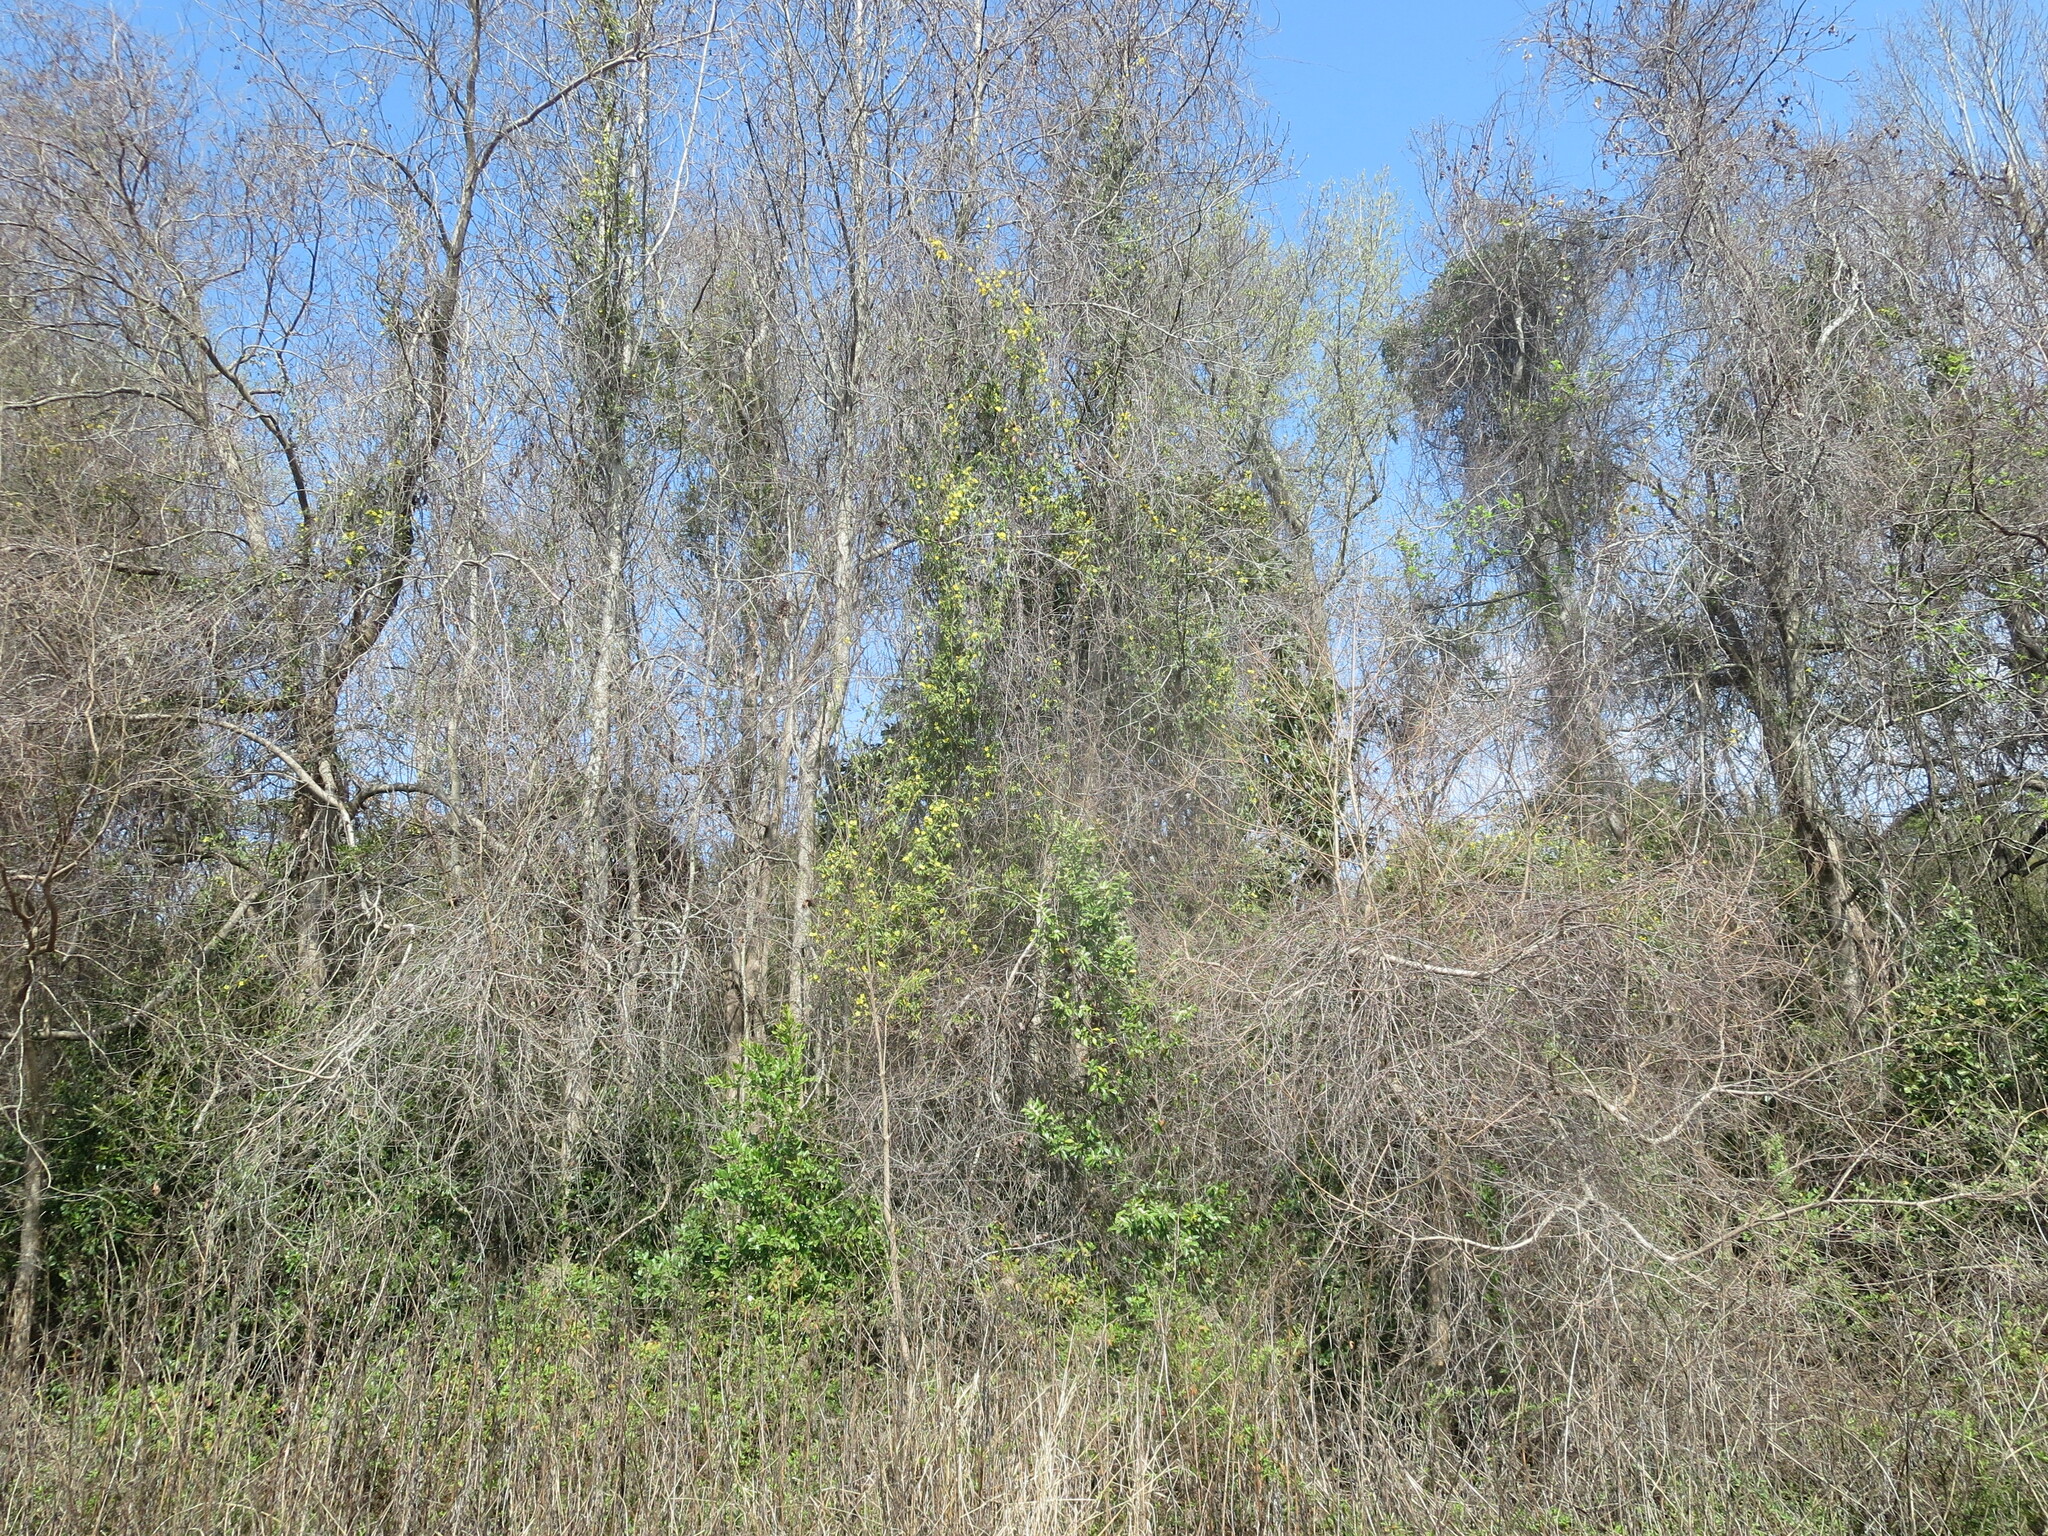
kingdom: Plantae
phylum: Tracheophyta
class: Magnoliopsida
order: Gentianales
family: Gelsemiaceae
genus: Gelsemium
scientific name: Gelsemium sempervirens
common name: Carolina-jasmine
